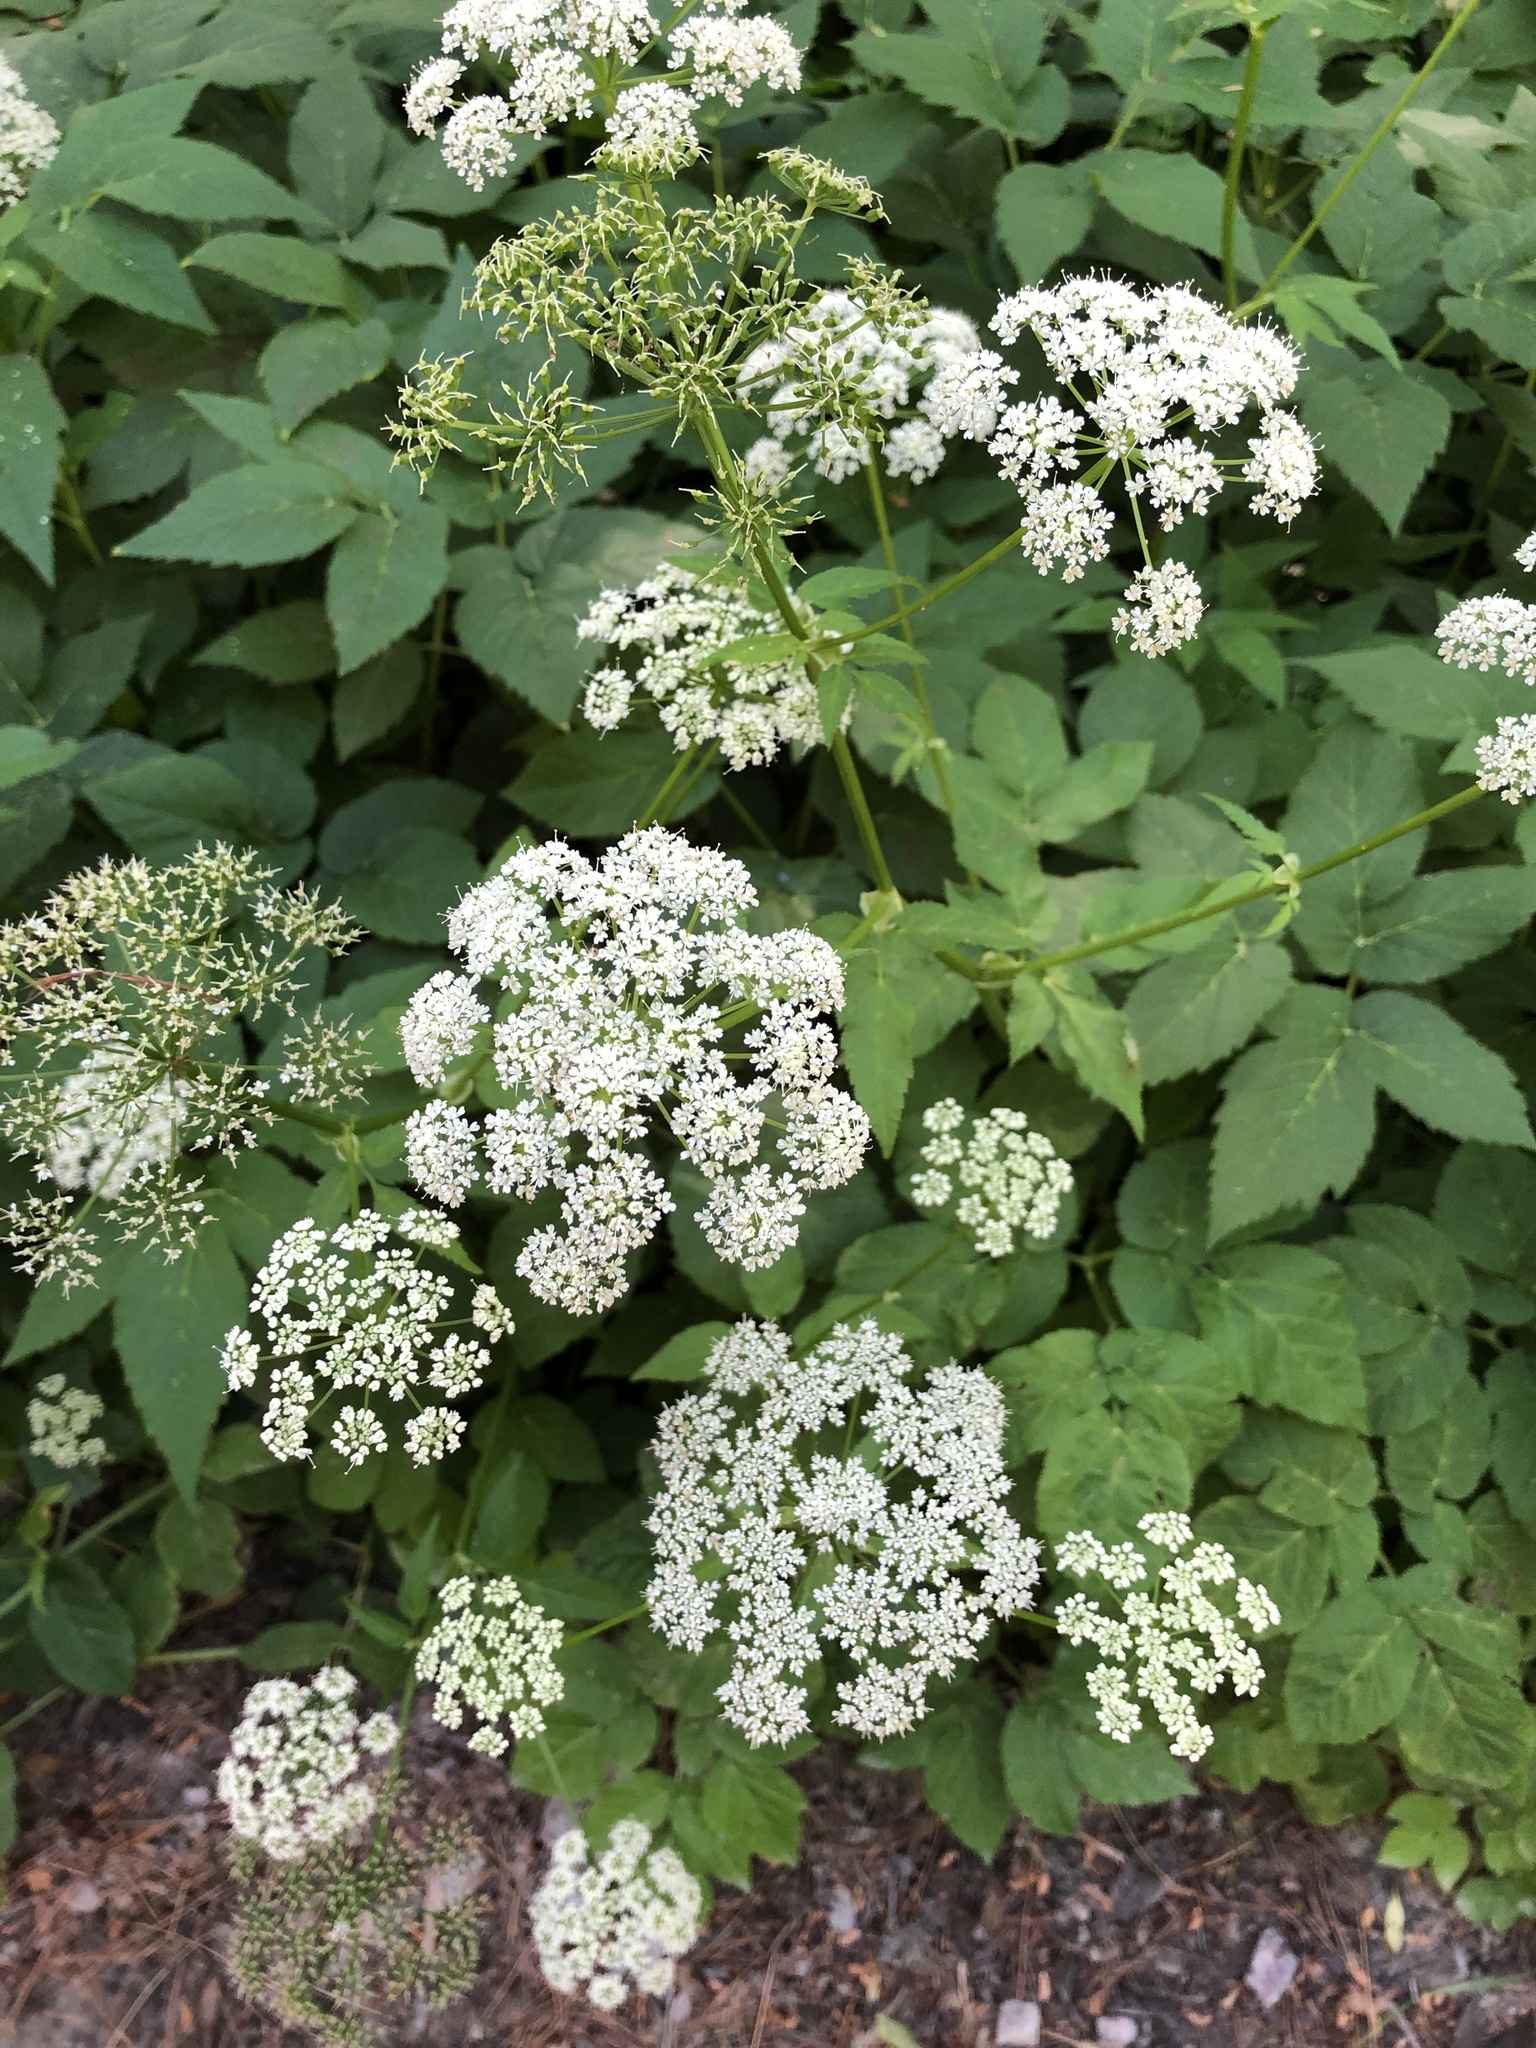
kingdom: Plantae
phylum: Tracheophyta
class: Magnoliopsida
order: Apiales
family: Apiaceae
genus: Aegopodium
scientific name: Aegopodium podagraria
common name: Ground-elder
